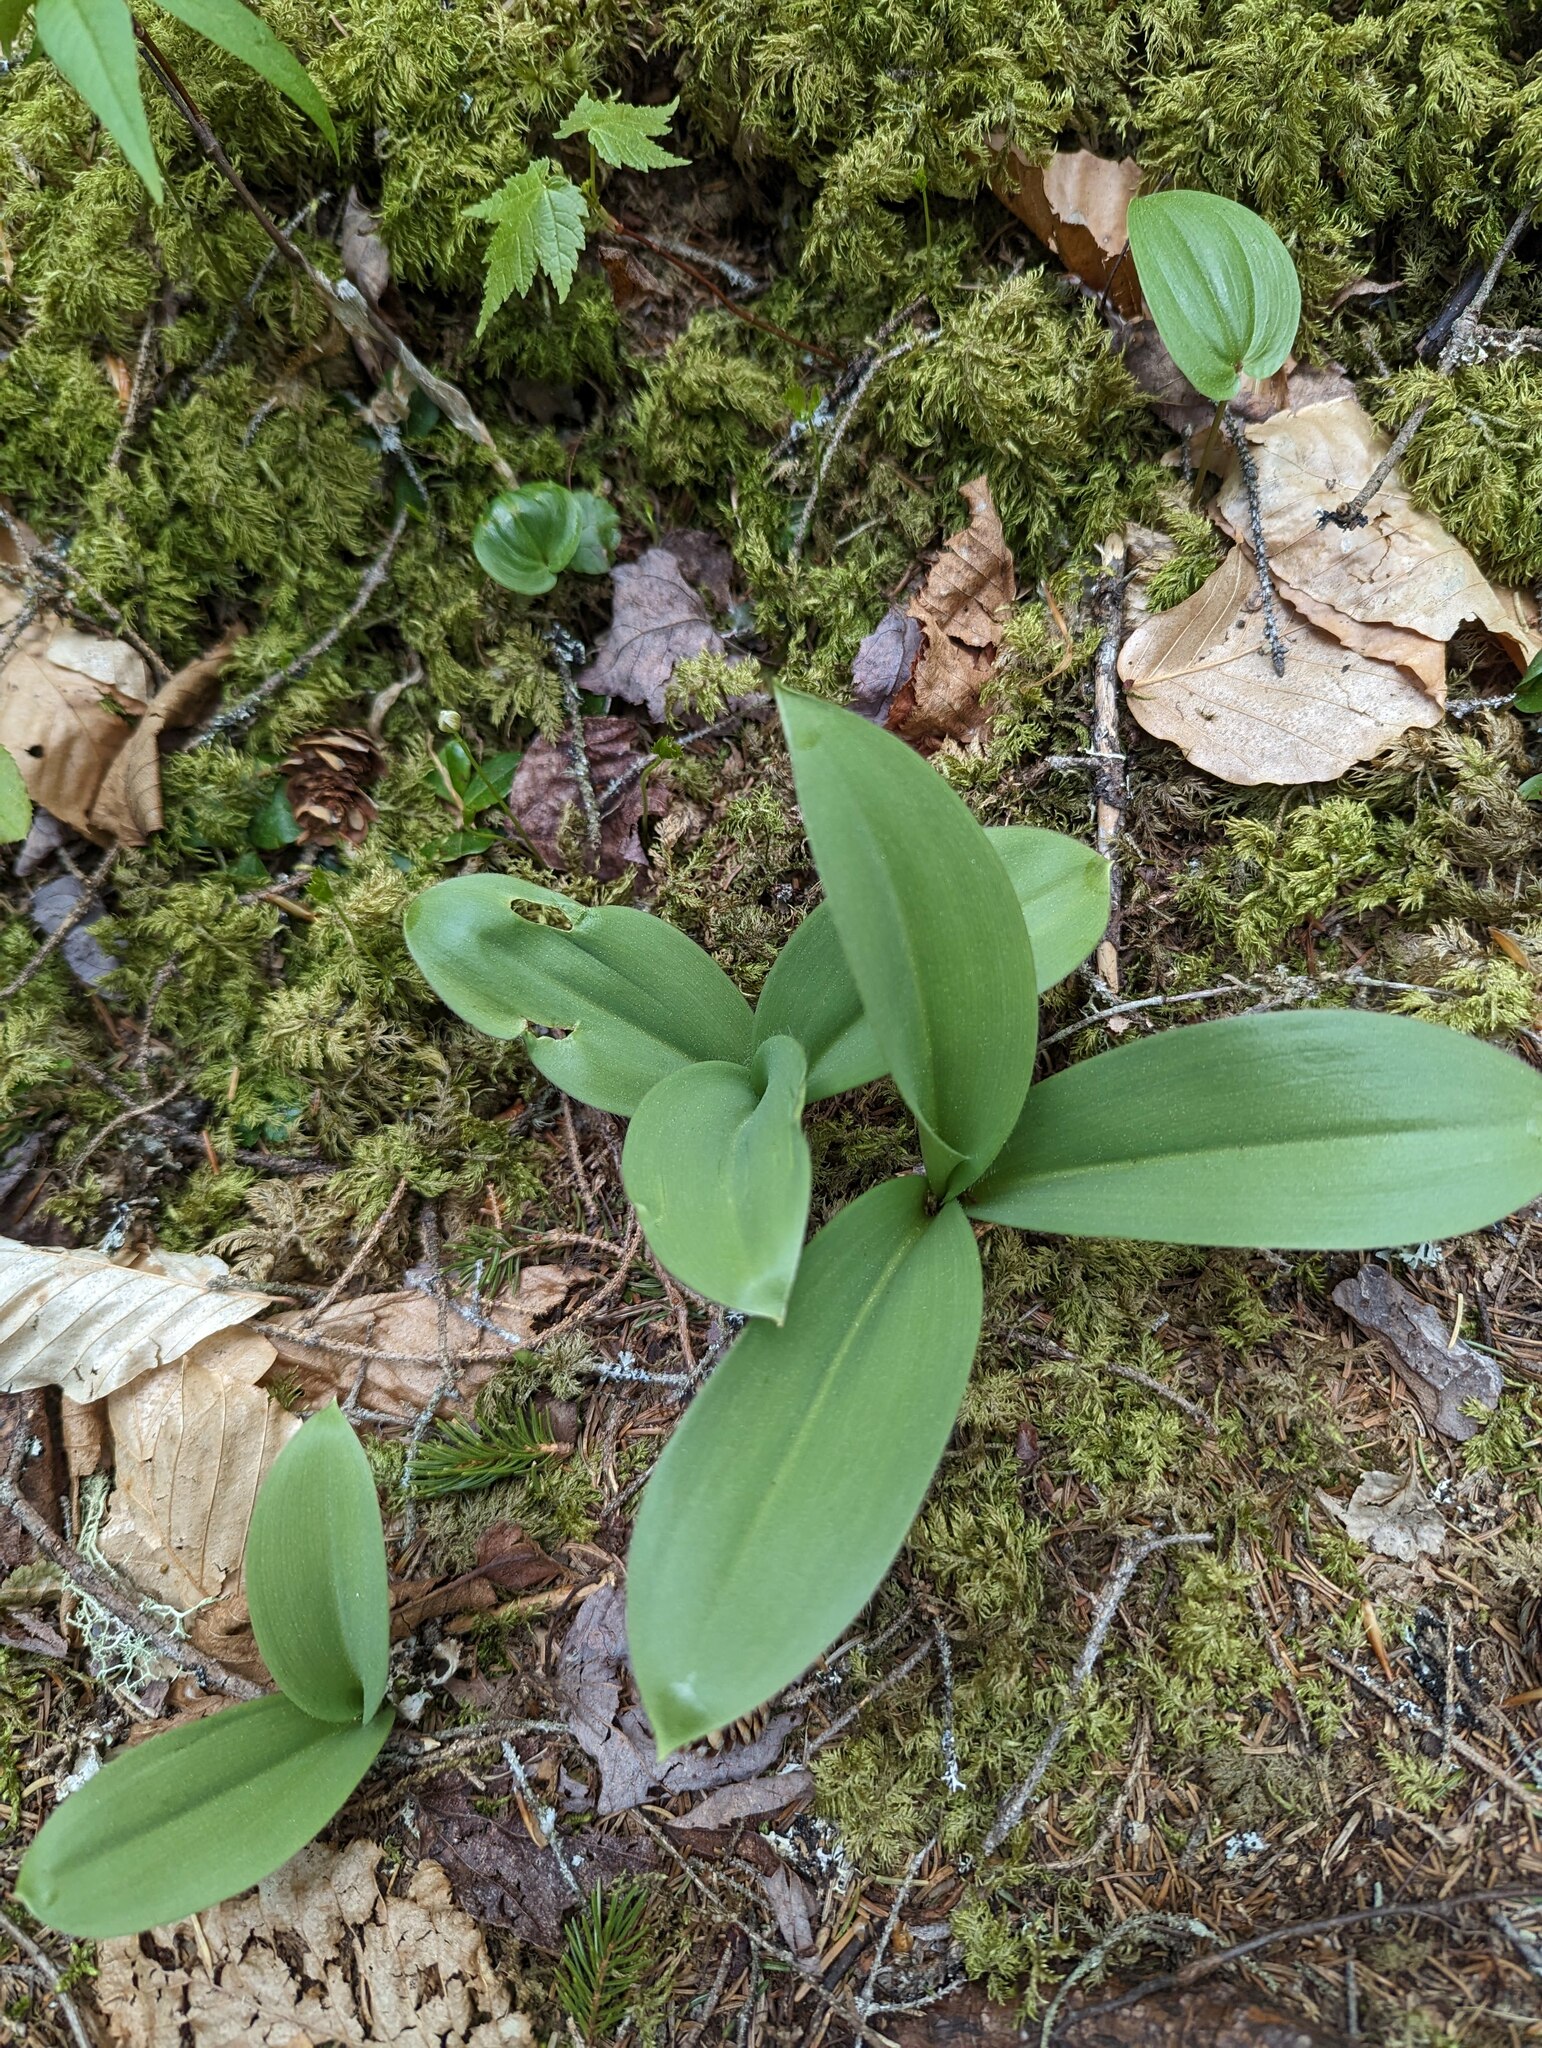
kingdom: Plantae
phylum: Tracheophyta
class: Liliopsida
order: Liliales
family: Liliaceae
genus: Clintonia
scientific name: Clintonia borealis
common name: Yellow clintonia
